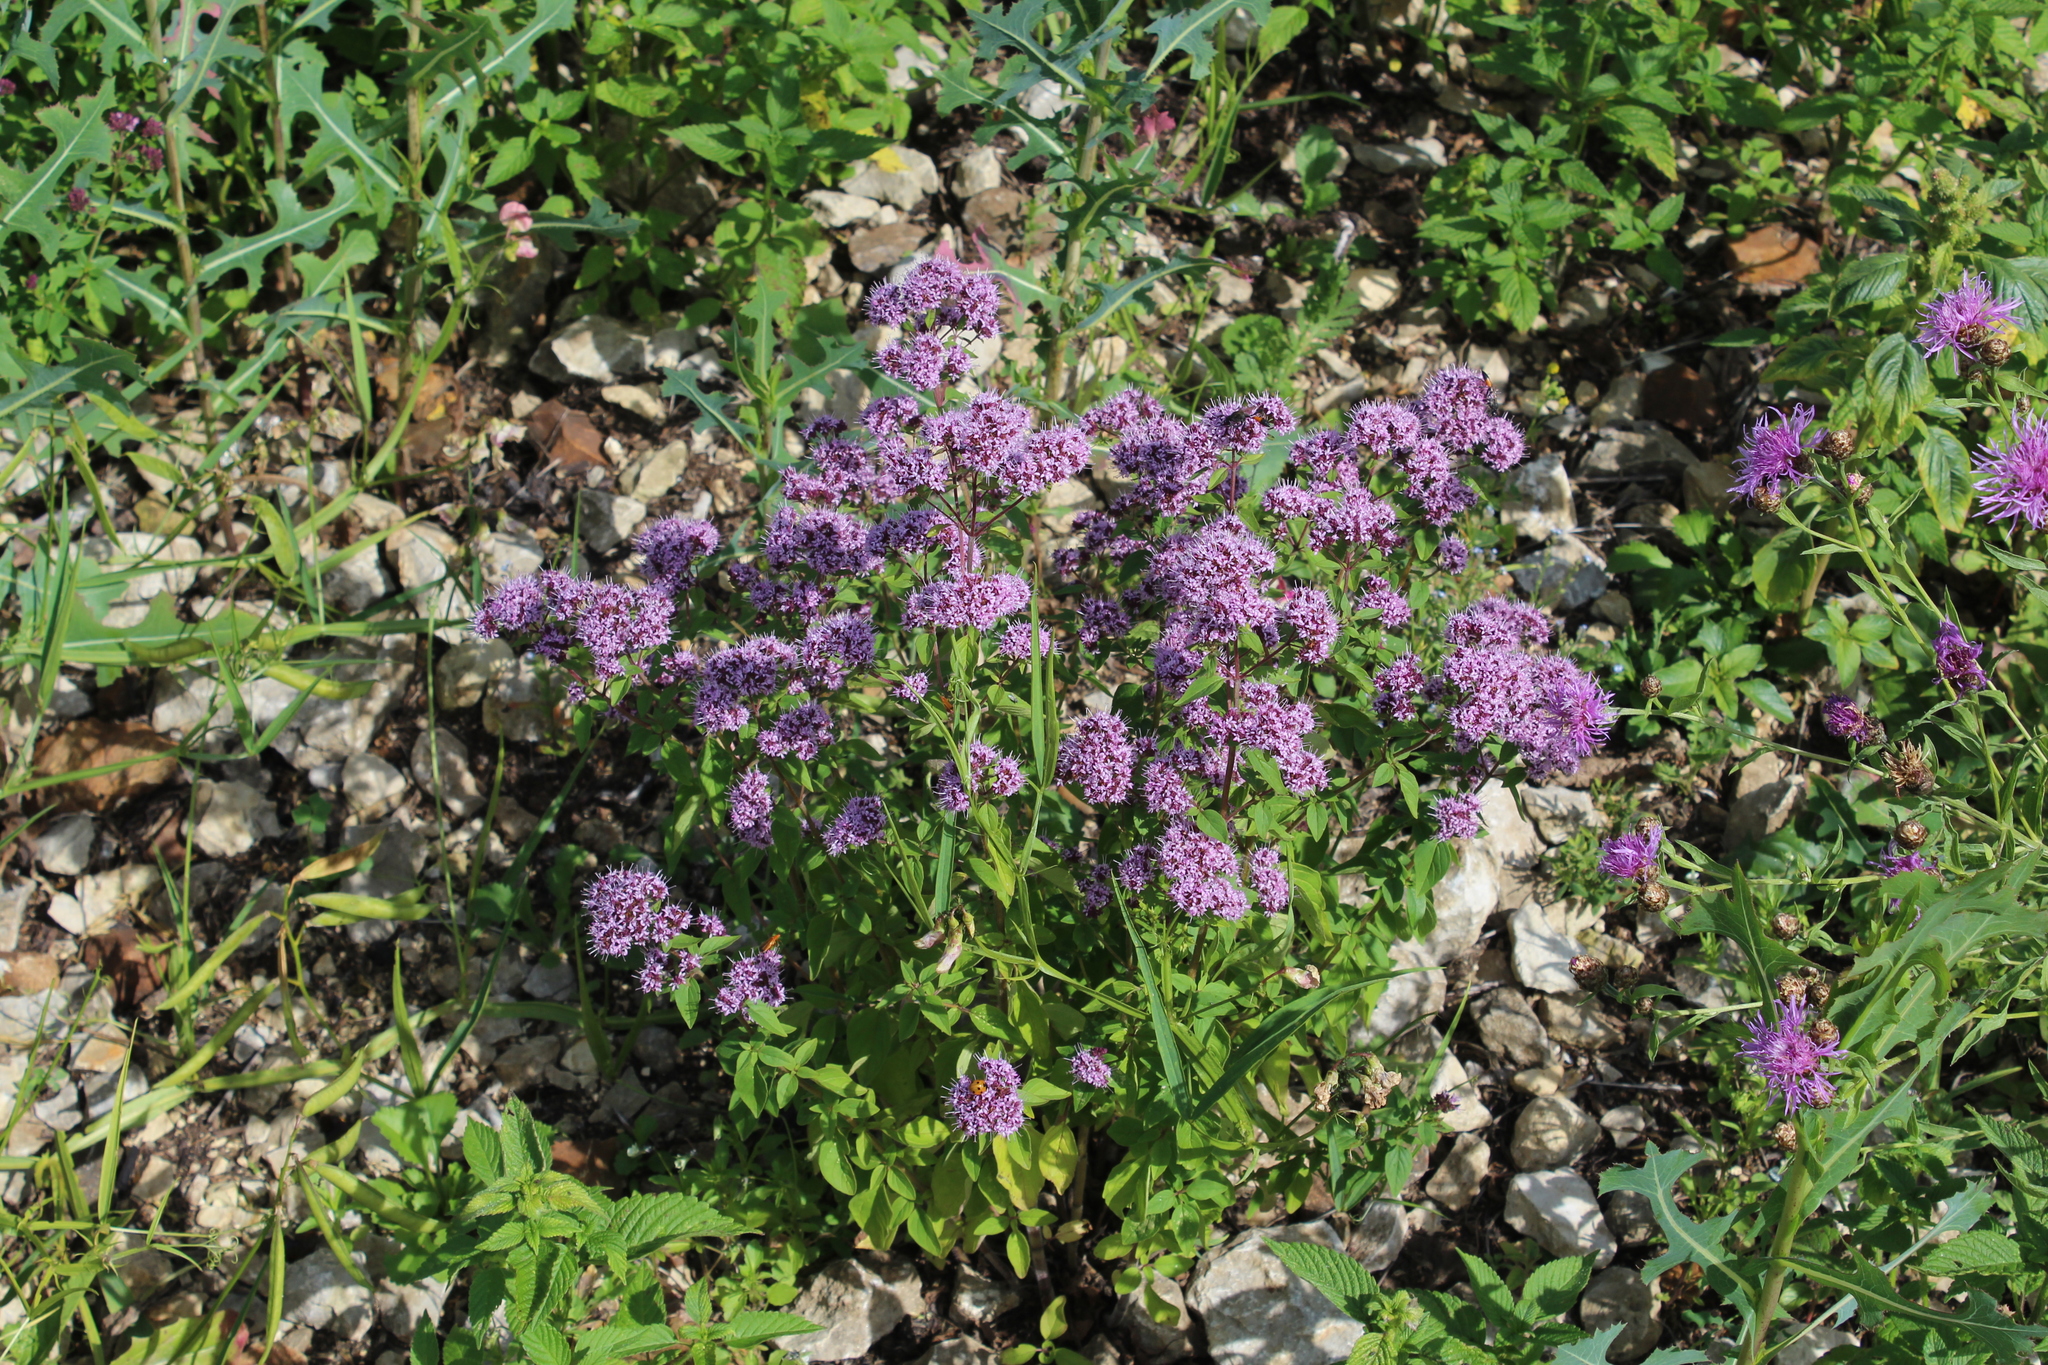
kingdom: Plantae
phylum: Tracheophyta
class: Magnoliopsida
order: Lamiales
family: Lamiaceae
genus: Origanum
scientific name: Origanum vulgare
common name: Wild marjoram
